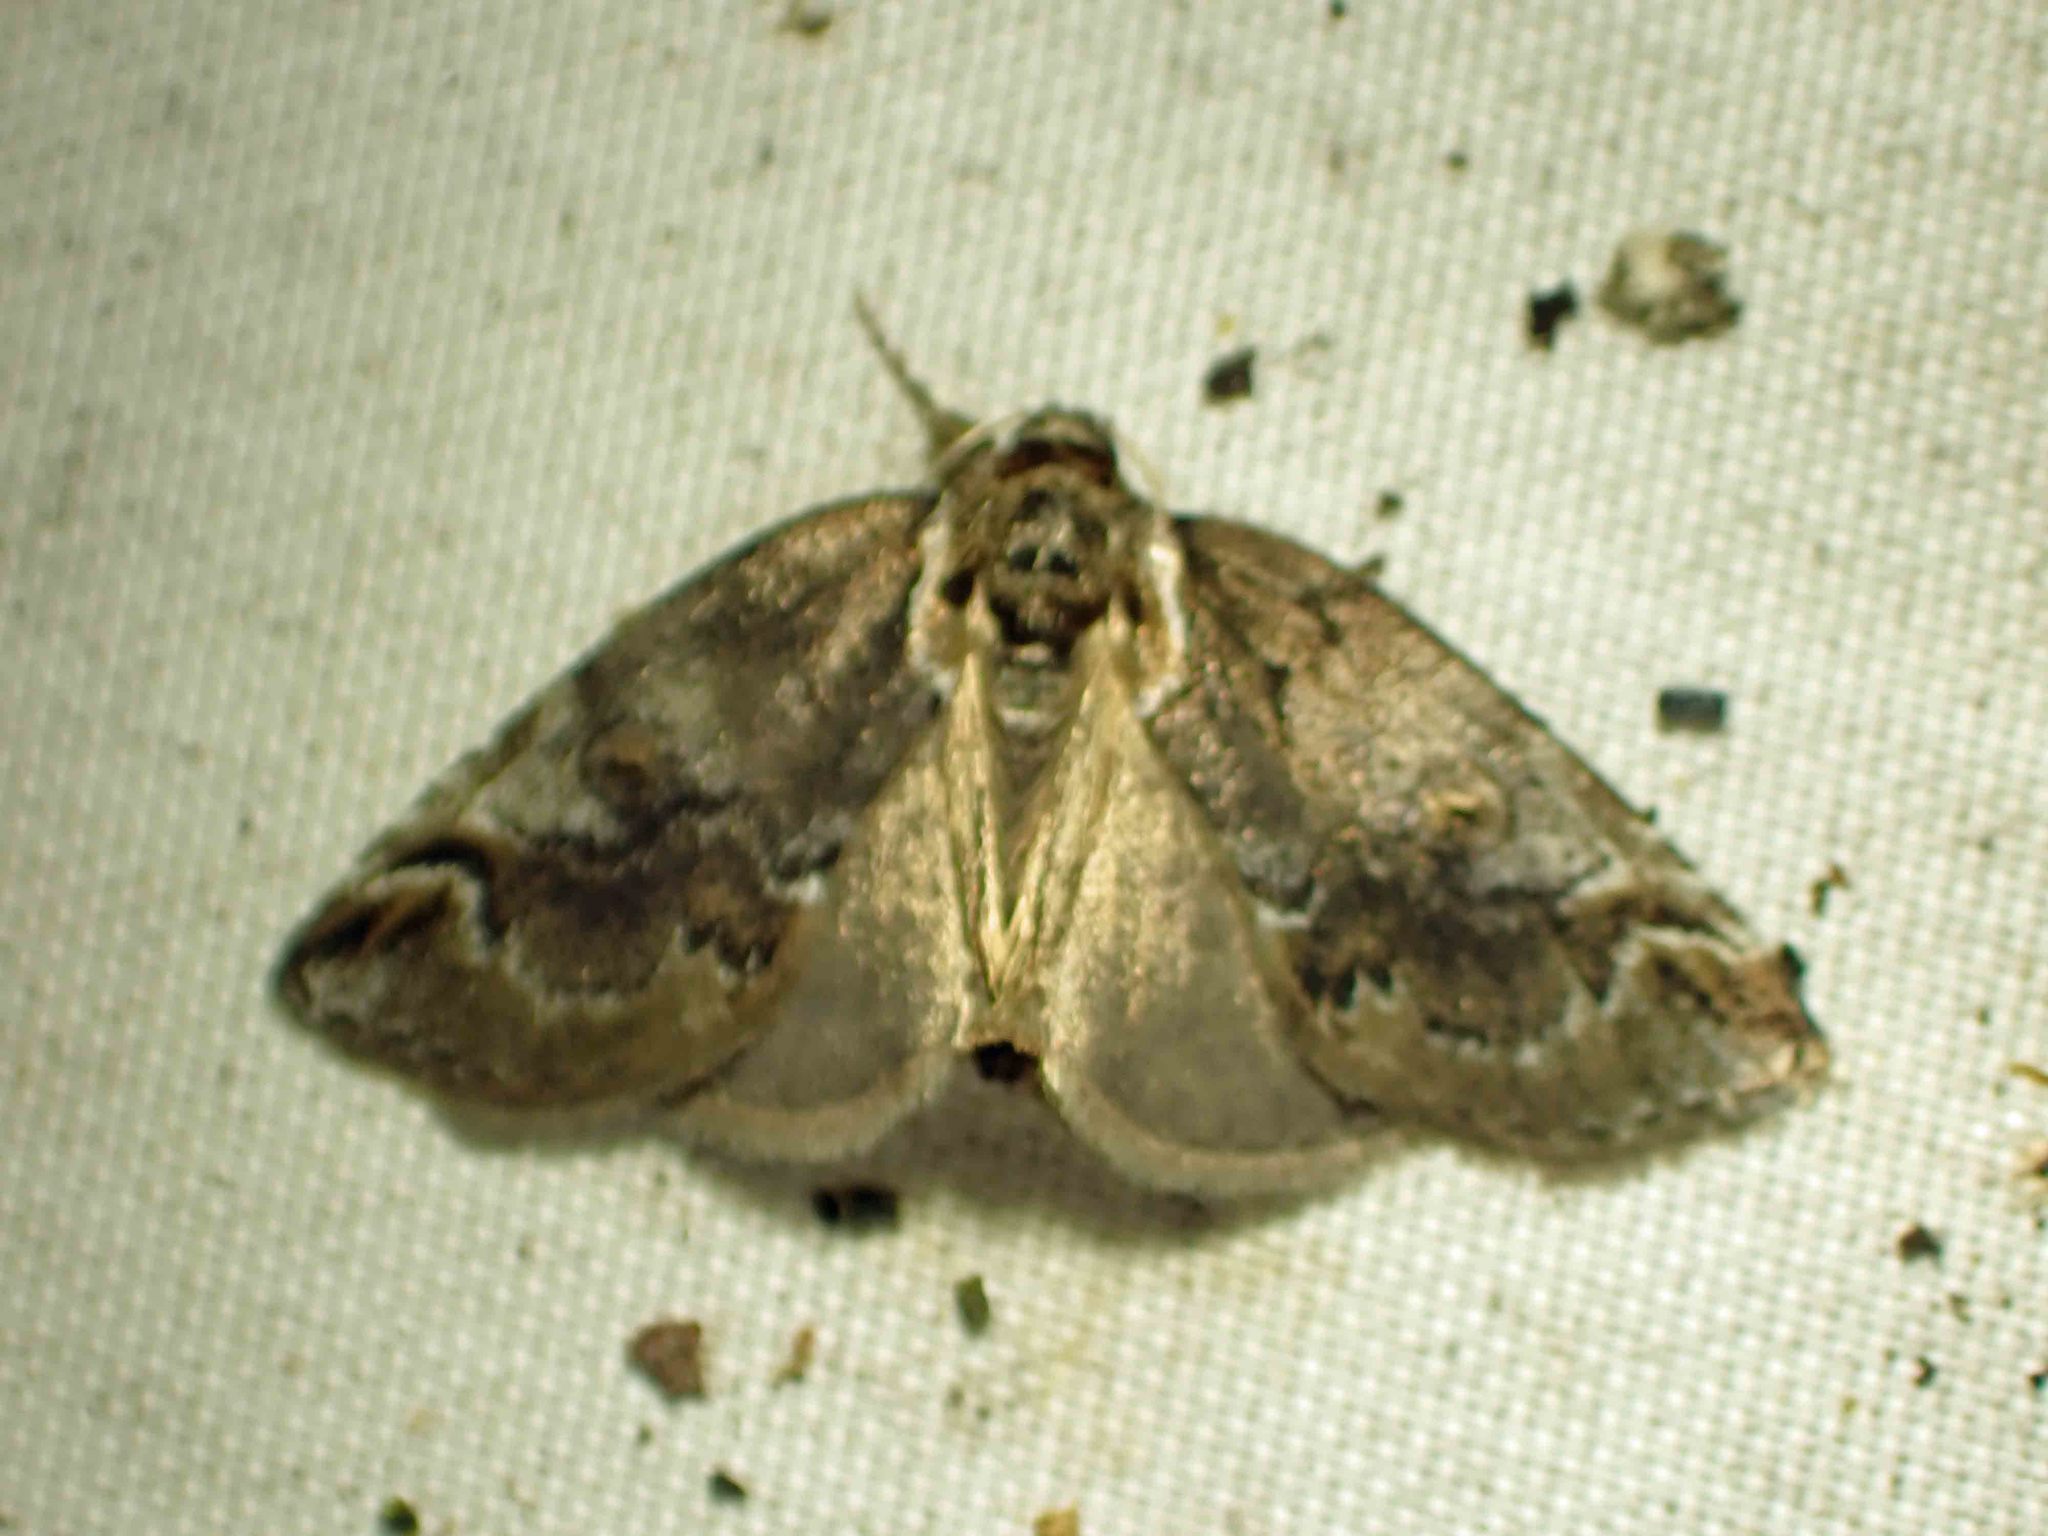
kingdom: Animalia
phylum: Arthropoda
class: Insecta
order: Lepidoptera
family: Nolidae
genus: Baileya
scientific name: Baileya ophthalmica
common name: Eyed baileya moth
